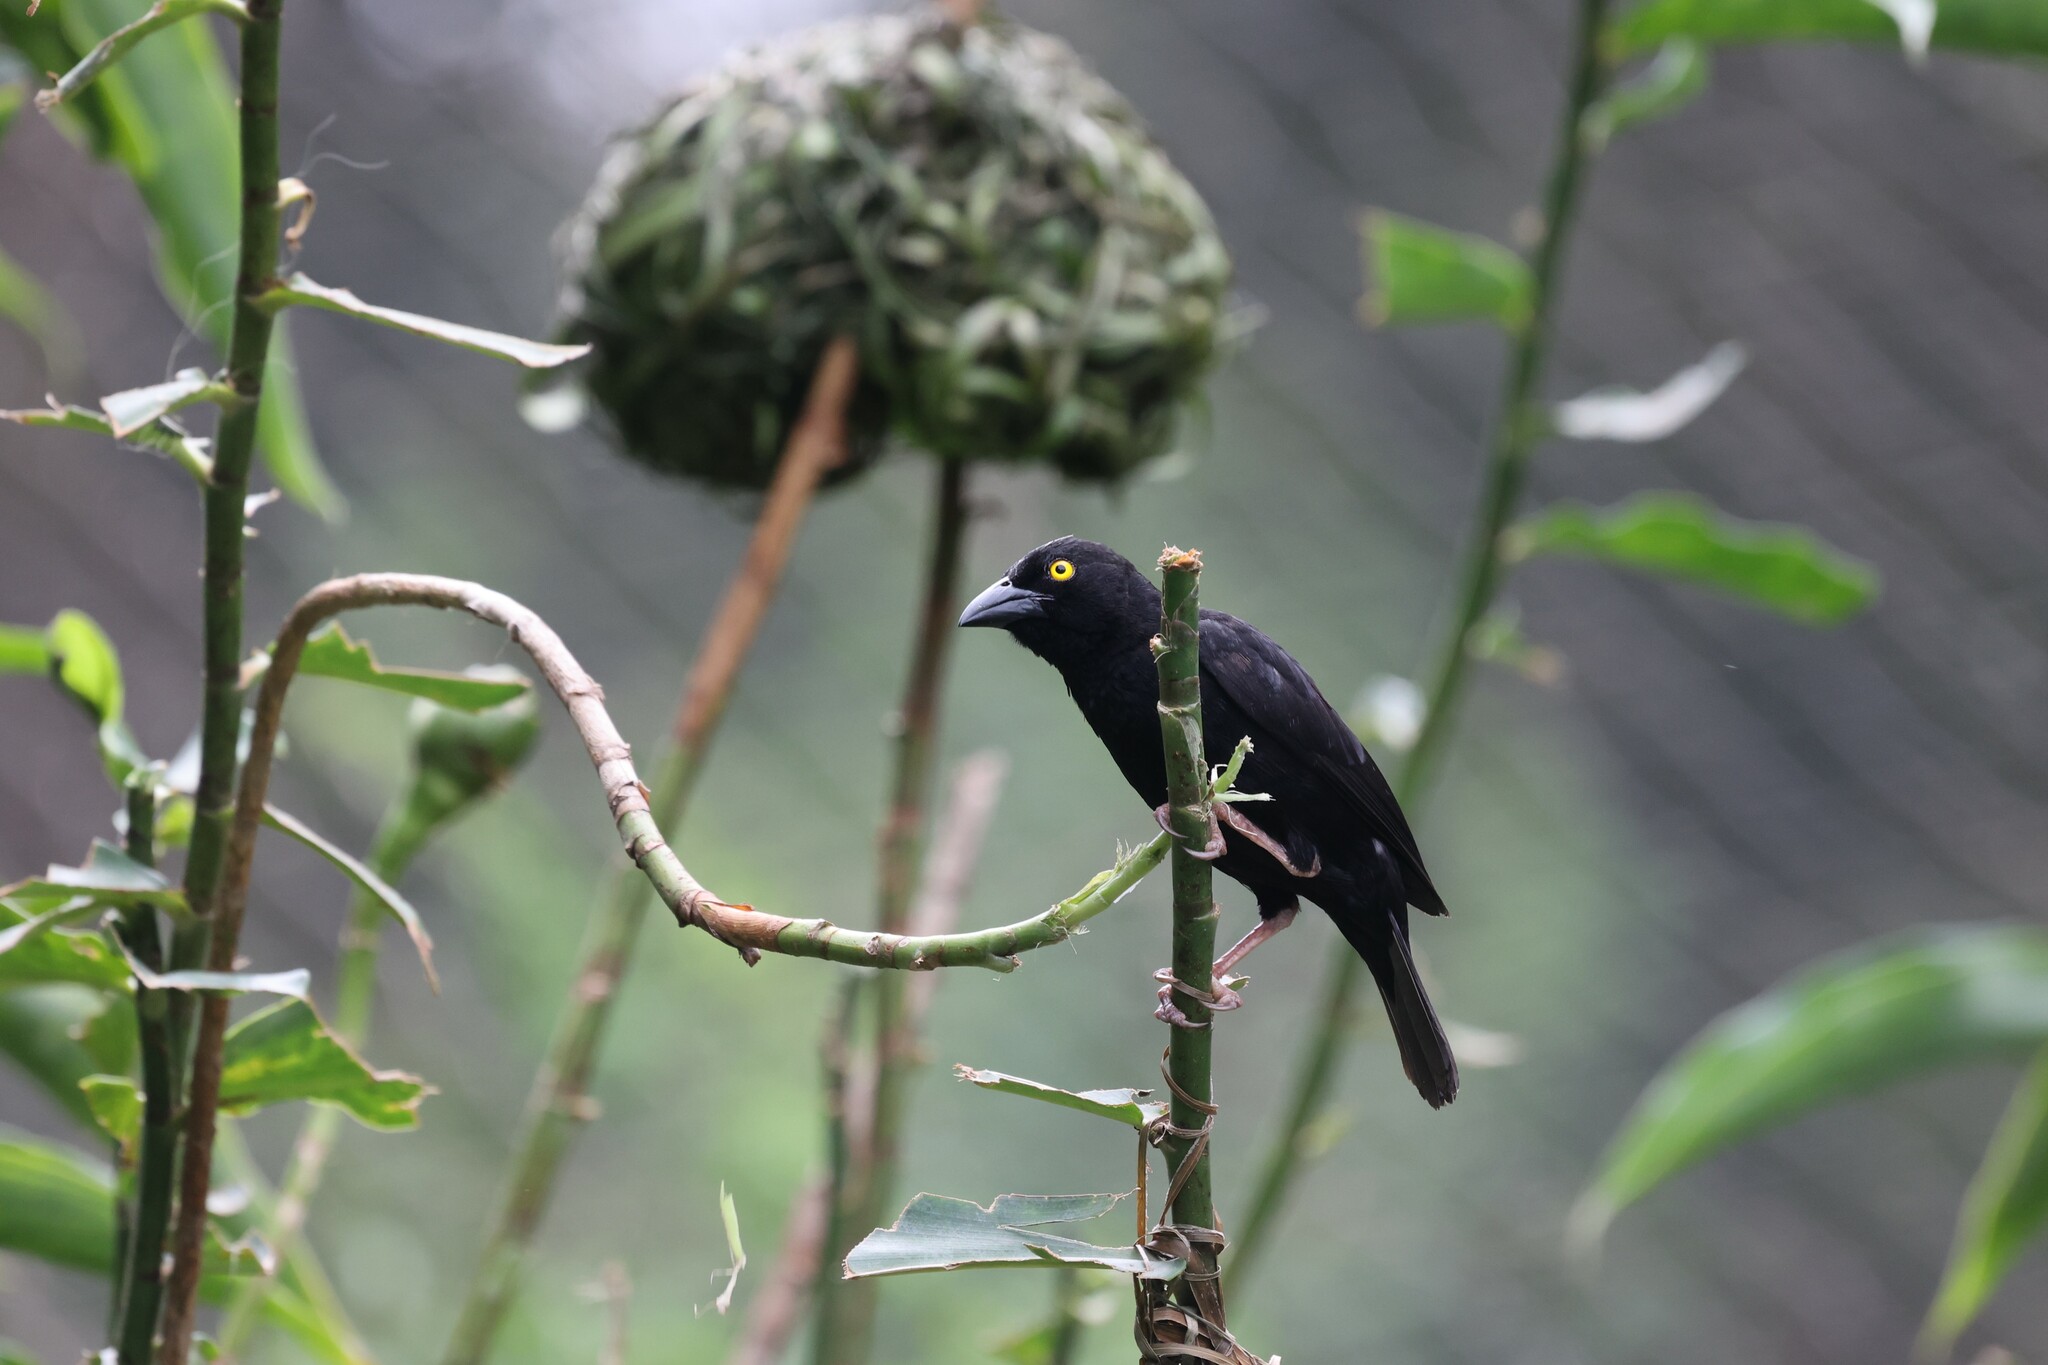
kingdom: Animalia
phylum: Chordata
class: Aves
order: Passeriformes
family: Ploceidae
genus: Ploceus
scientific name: Ploceus nigerrimus
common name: Vieillot's black weaver
